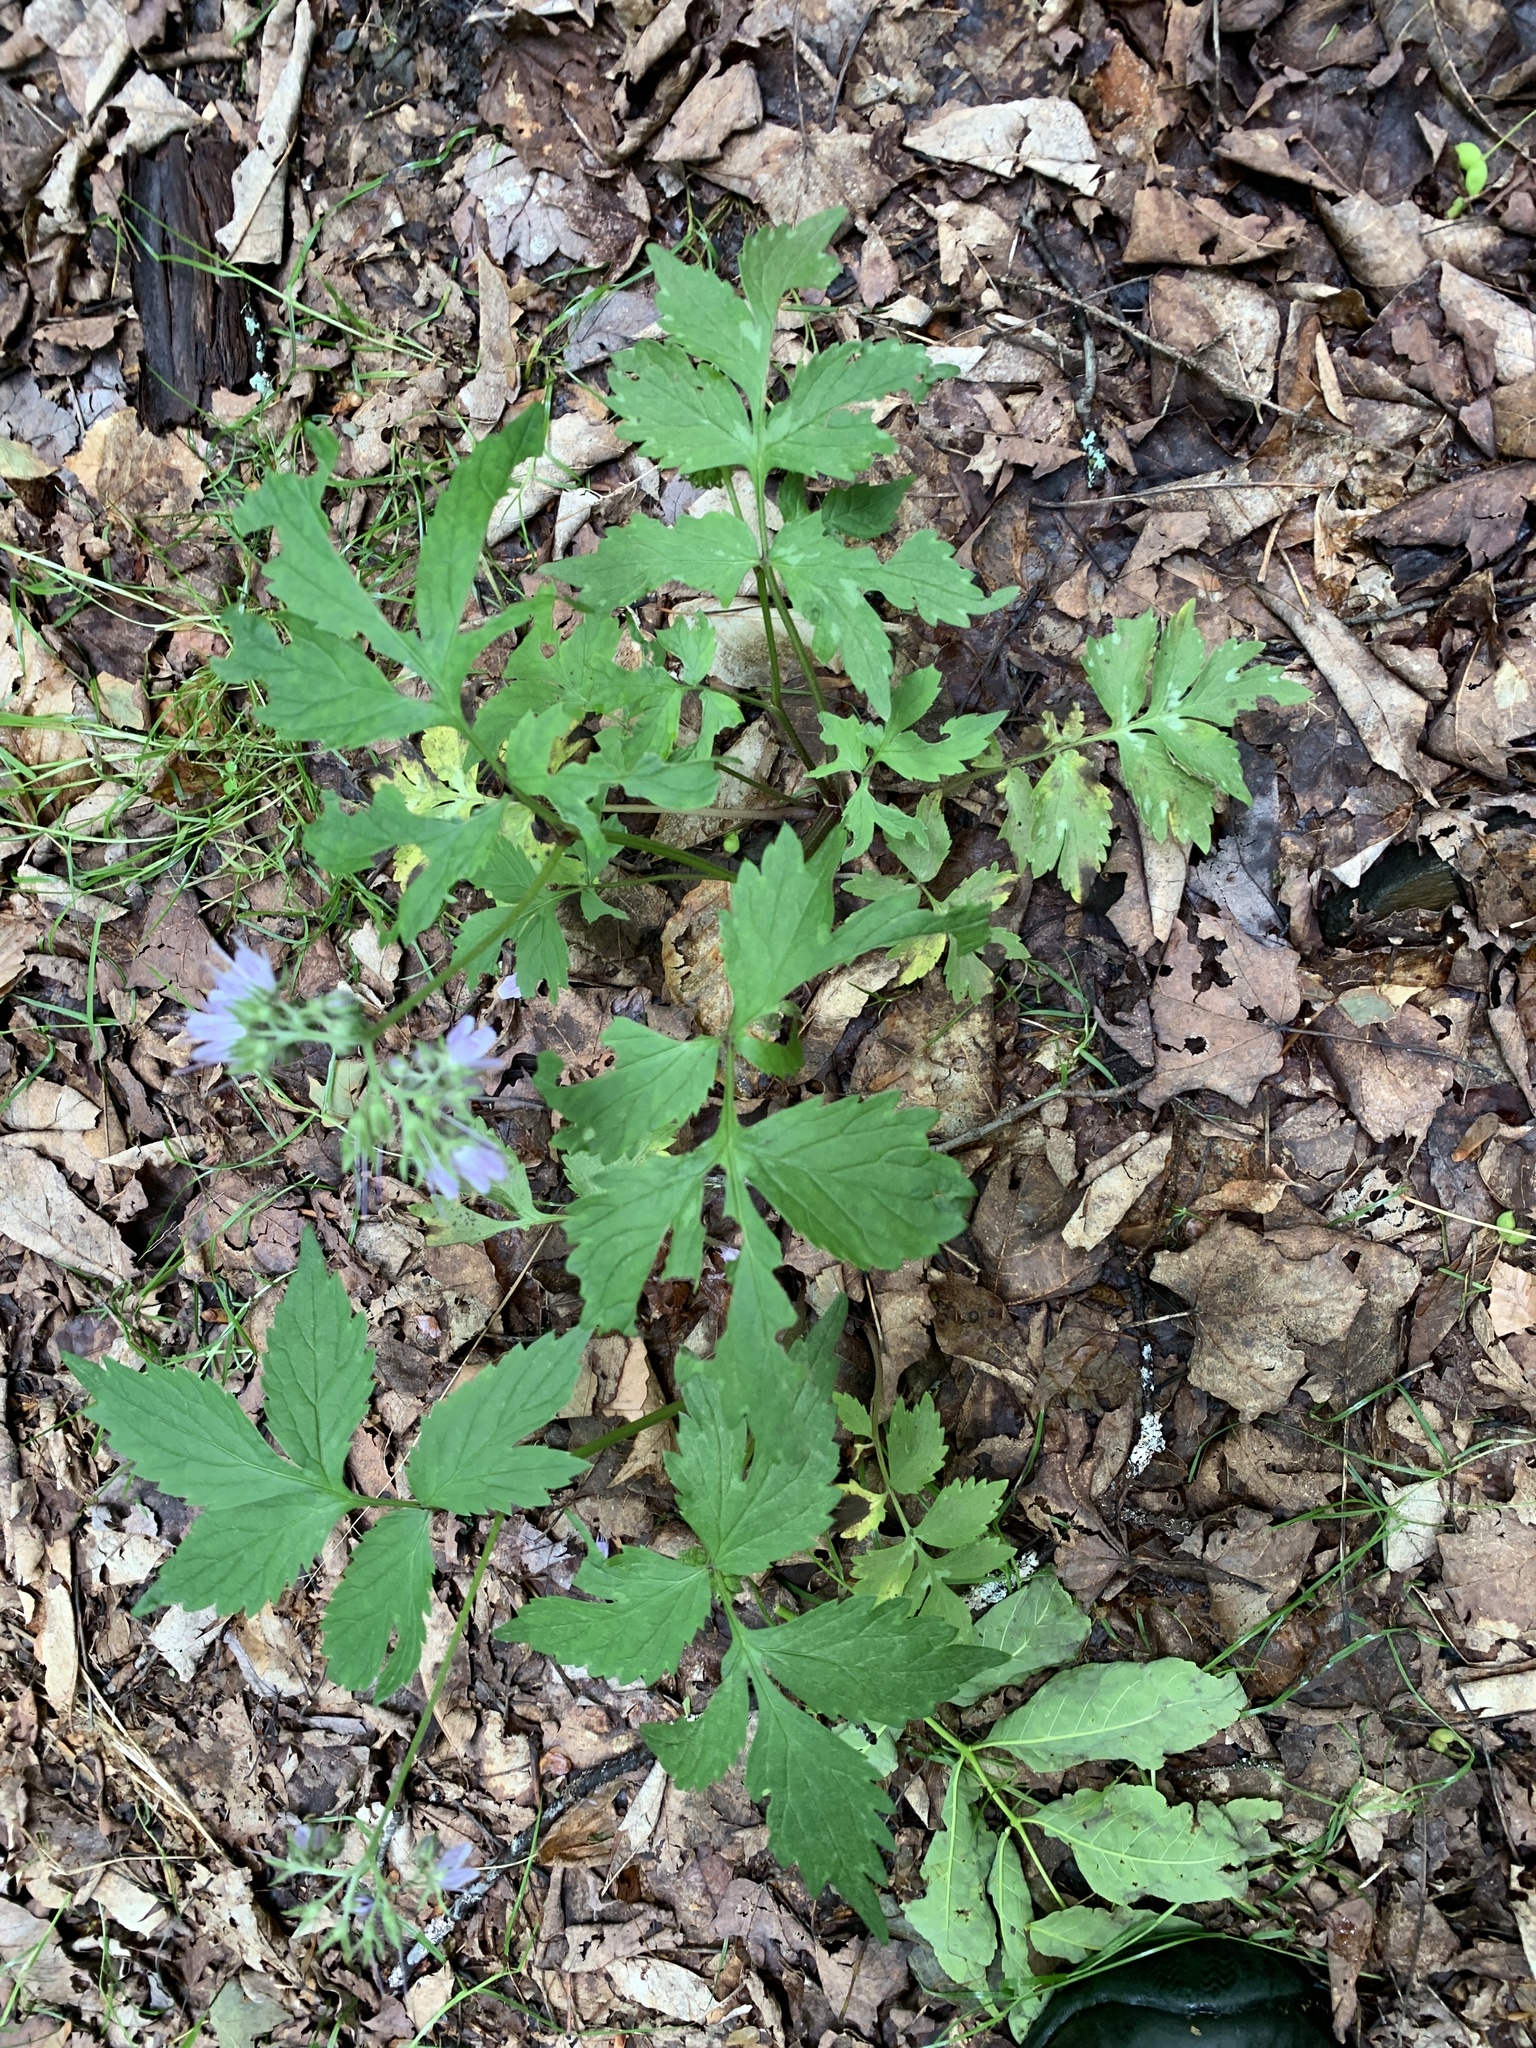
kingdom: Plantae
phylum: Tracheophyta
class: Magnoliopsida
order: Boraginales
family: Hydrophyllaceae
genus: Hydrophyllum
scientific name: Hydrophyllum virginianum
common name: Virginia waterleaf
